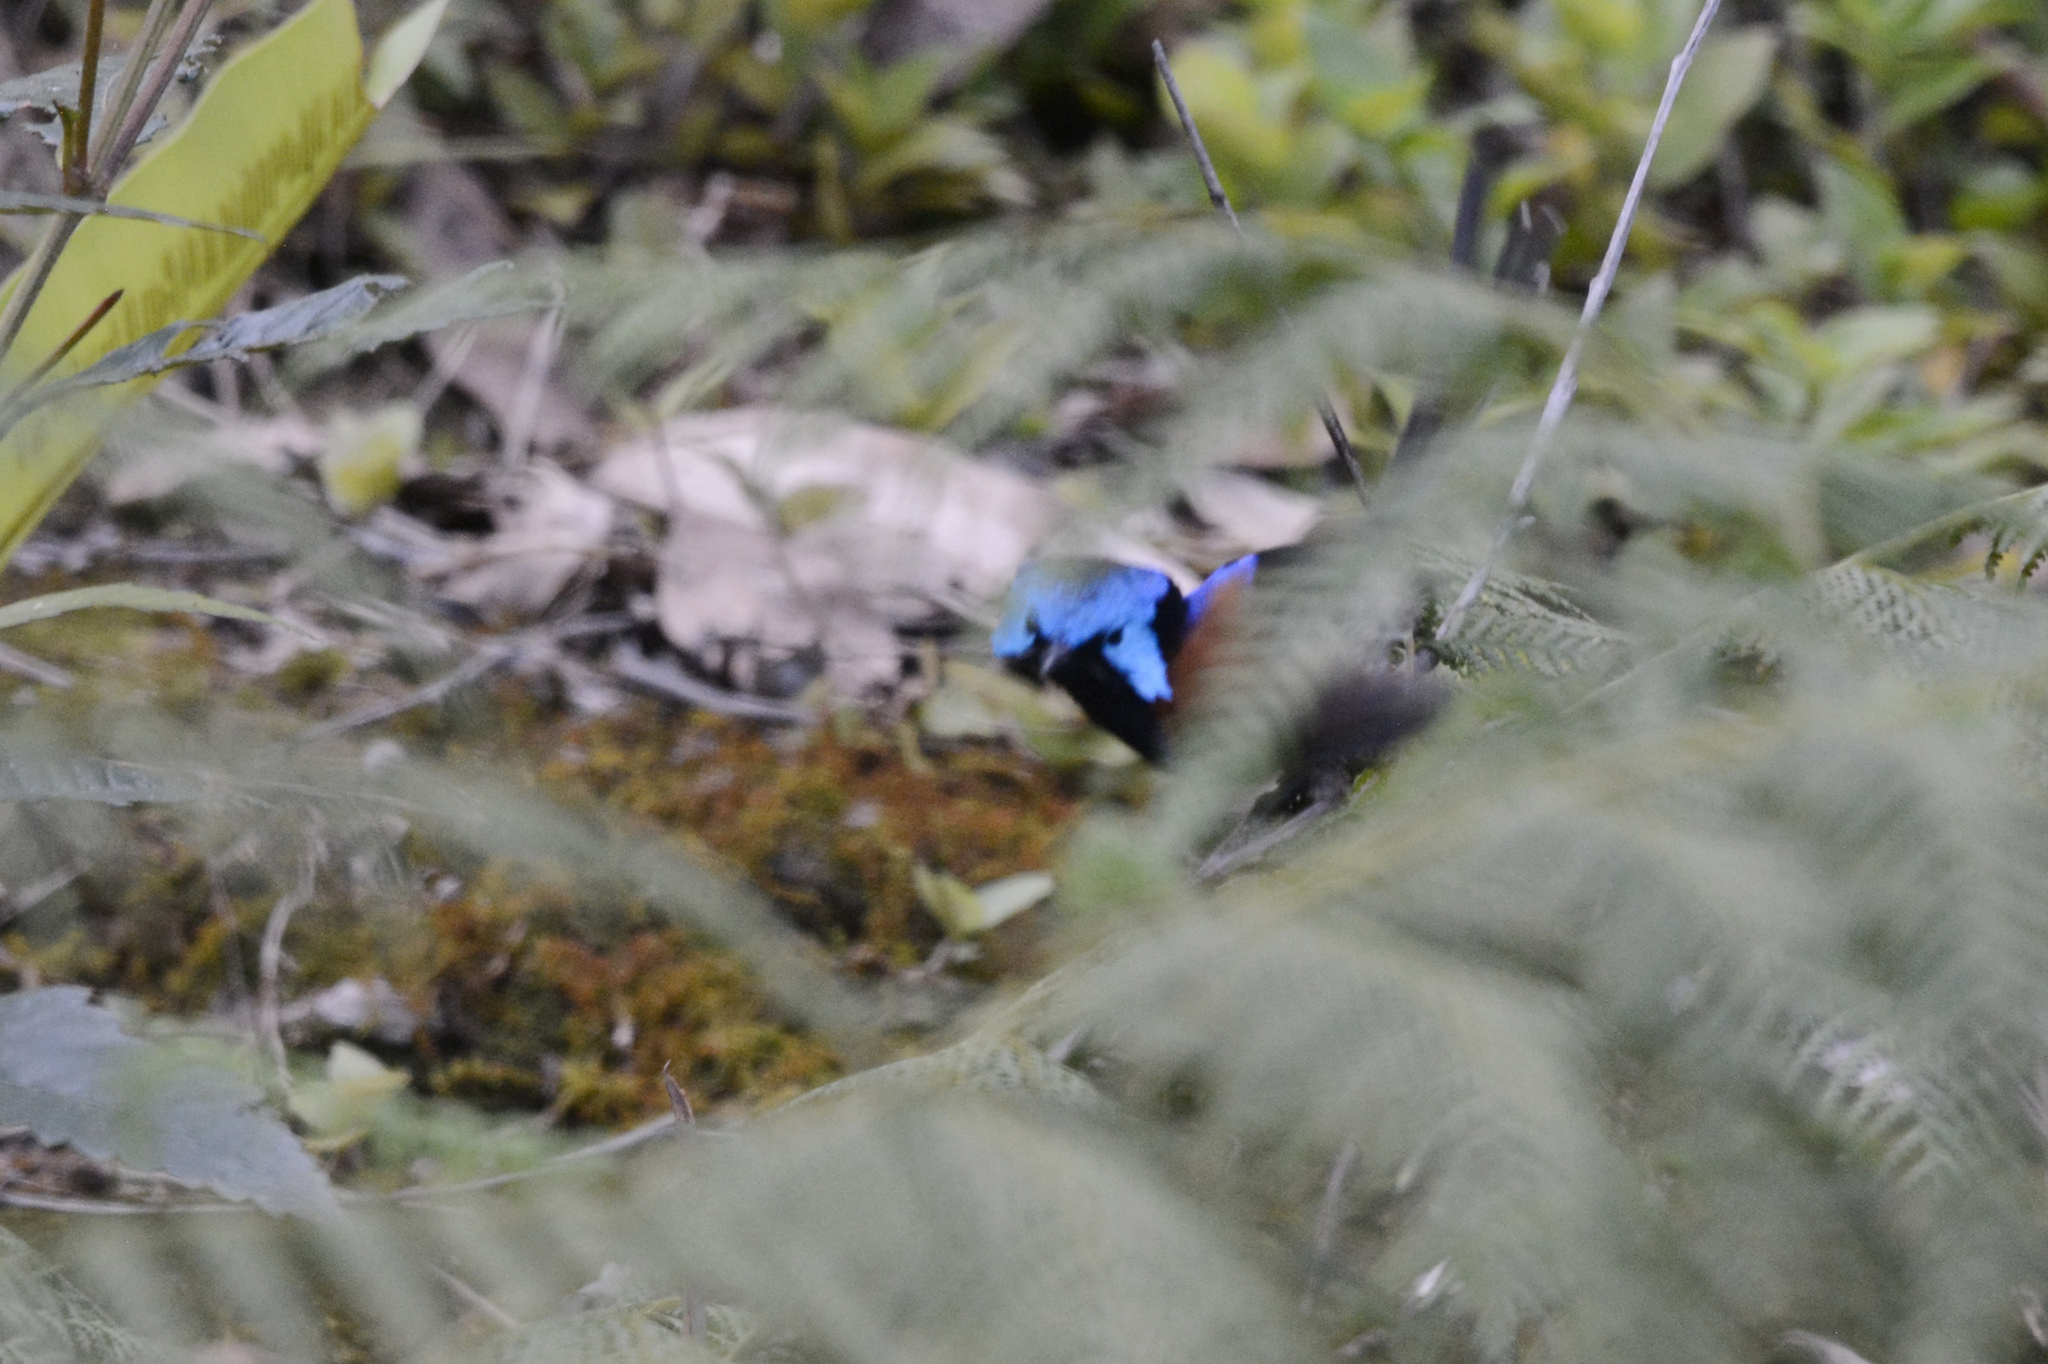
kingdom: Animalia
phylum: Chordata
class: Aves
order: Passeriformes
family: Maluridae
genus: Malurus
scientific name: Malurus lamberti
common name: Variegated fairywren
